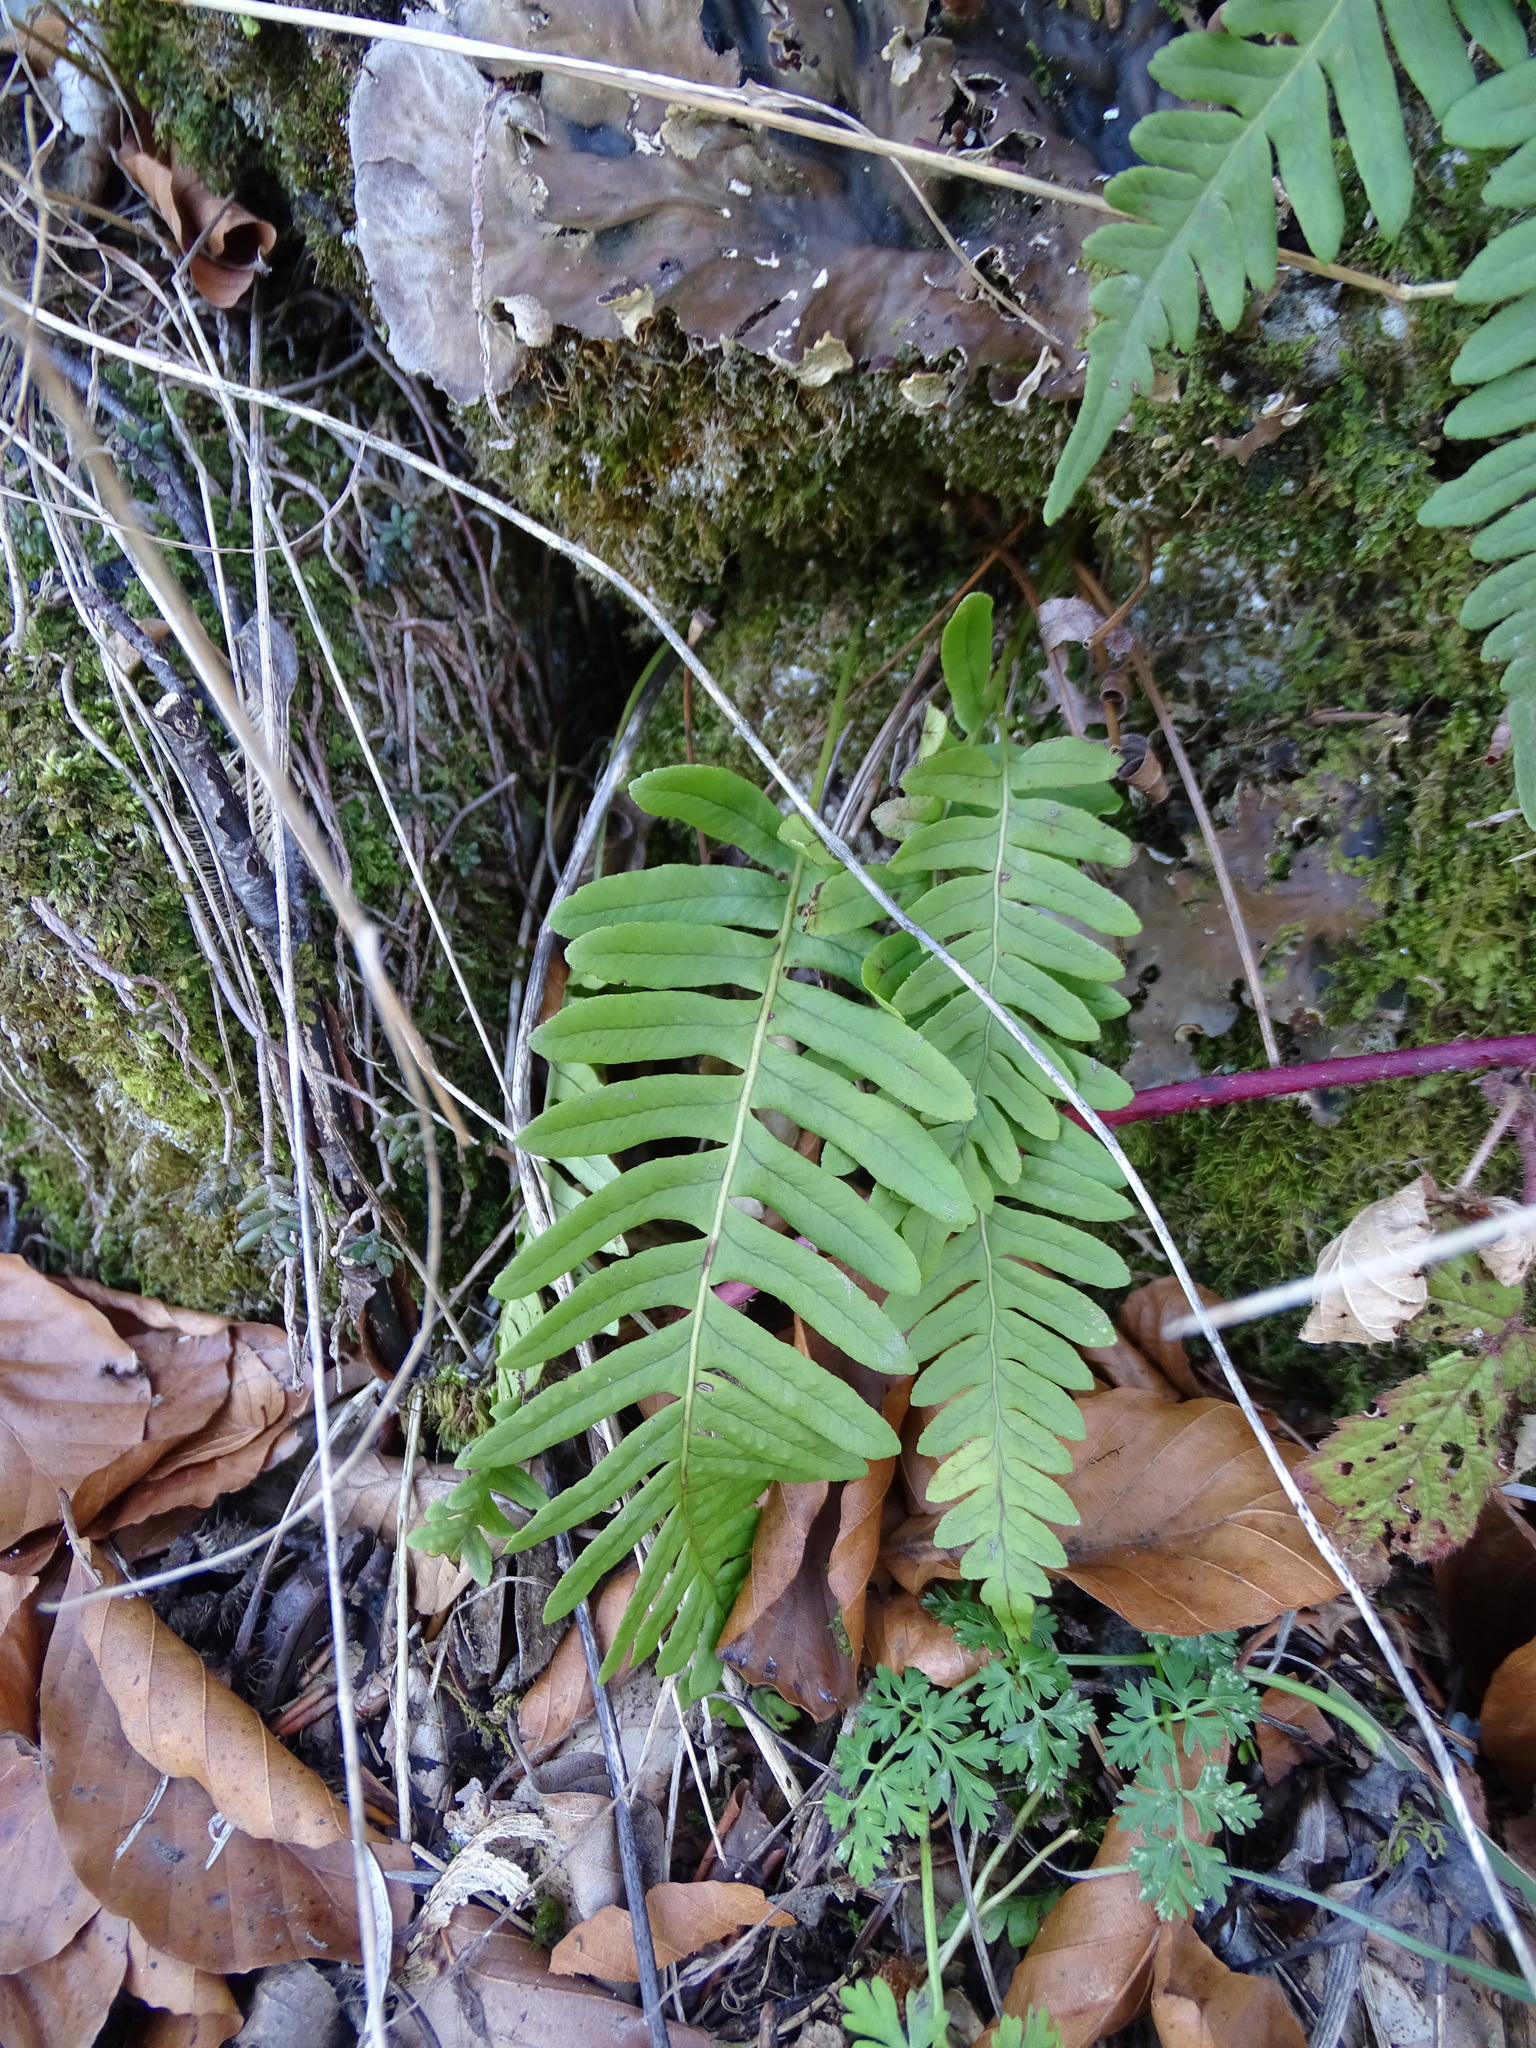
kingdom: Plantae
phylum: Tracheophyta
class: Polypodiopsida
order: Polypodiales
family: Polypodiaceae
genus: Polypodium
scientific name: Polypodium vulgare
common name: Common polypody
